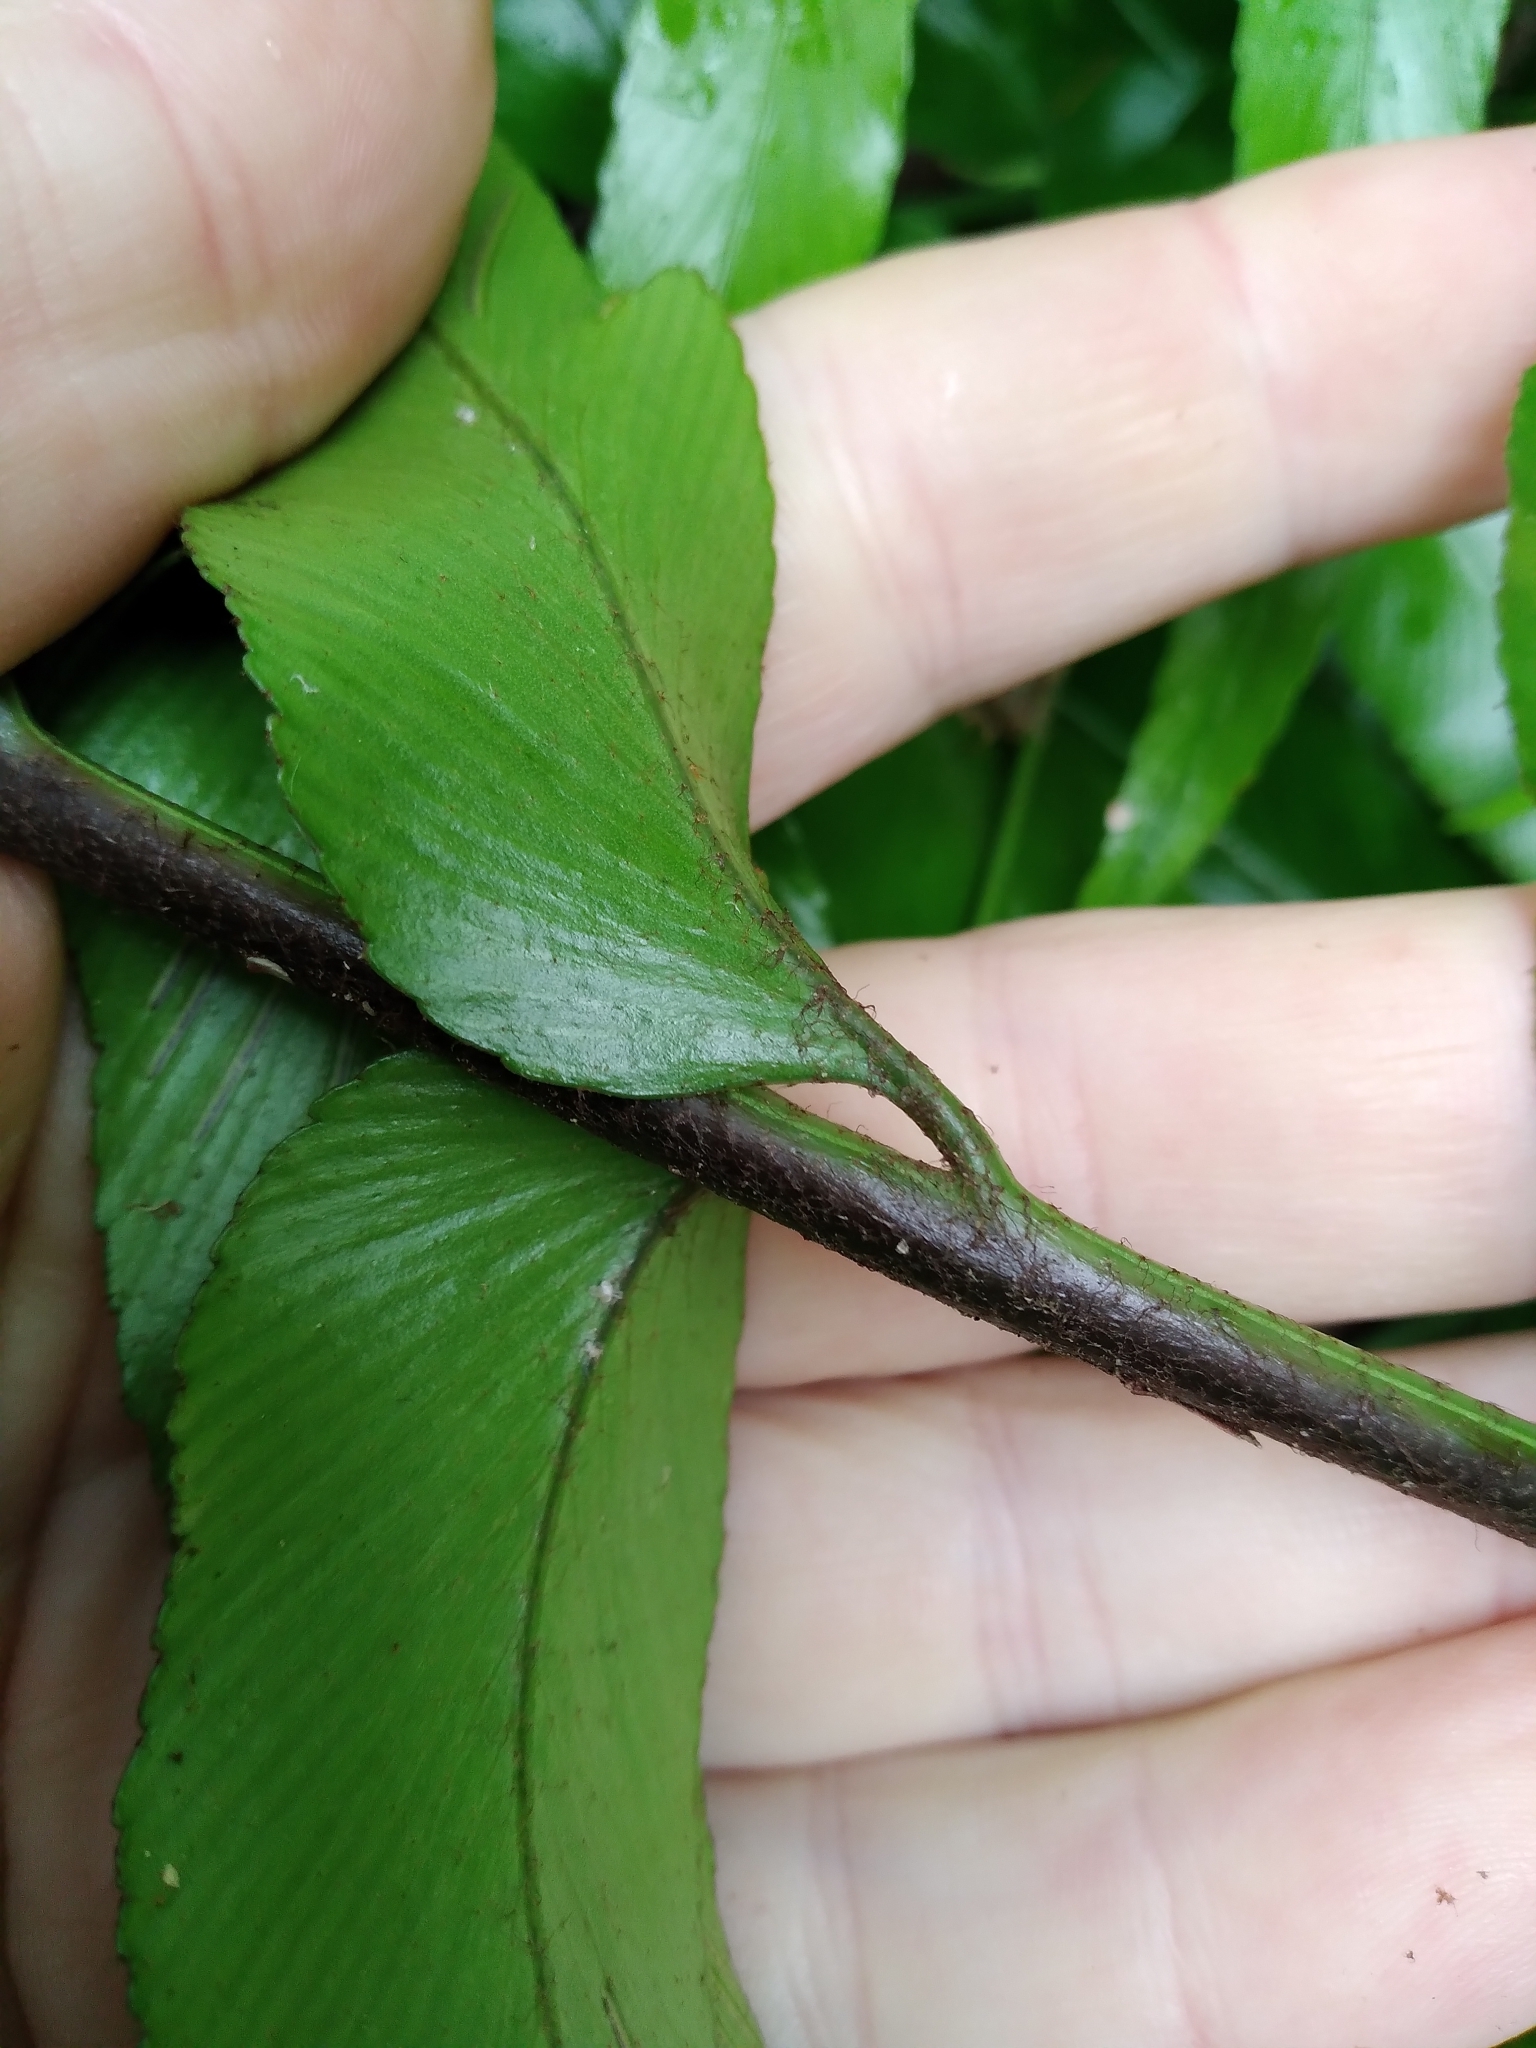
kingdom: Plantae
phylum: Tracheophyta
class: Polypodiopsida
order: Polypodiales
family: Aspleniaceae
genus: Asplenium
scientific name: Asplenium oblongifolium
